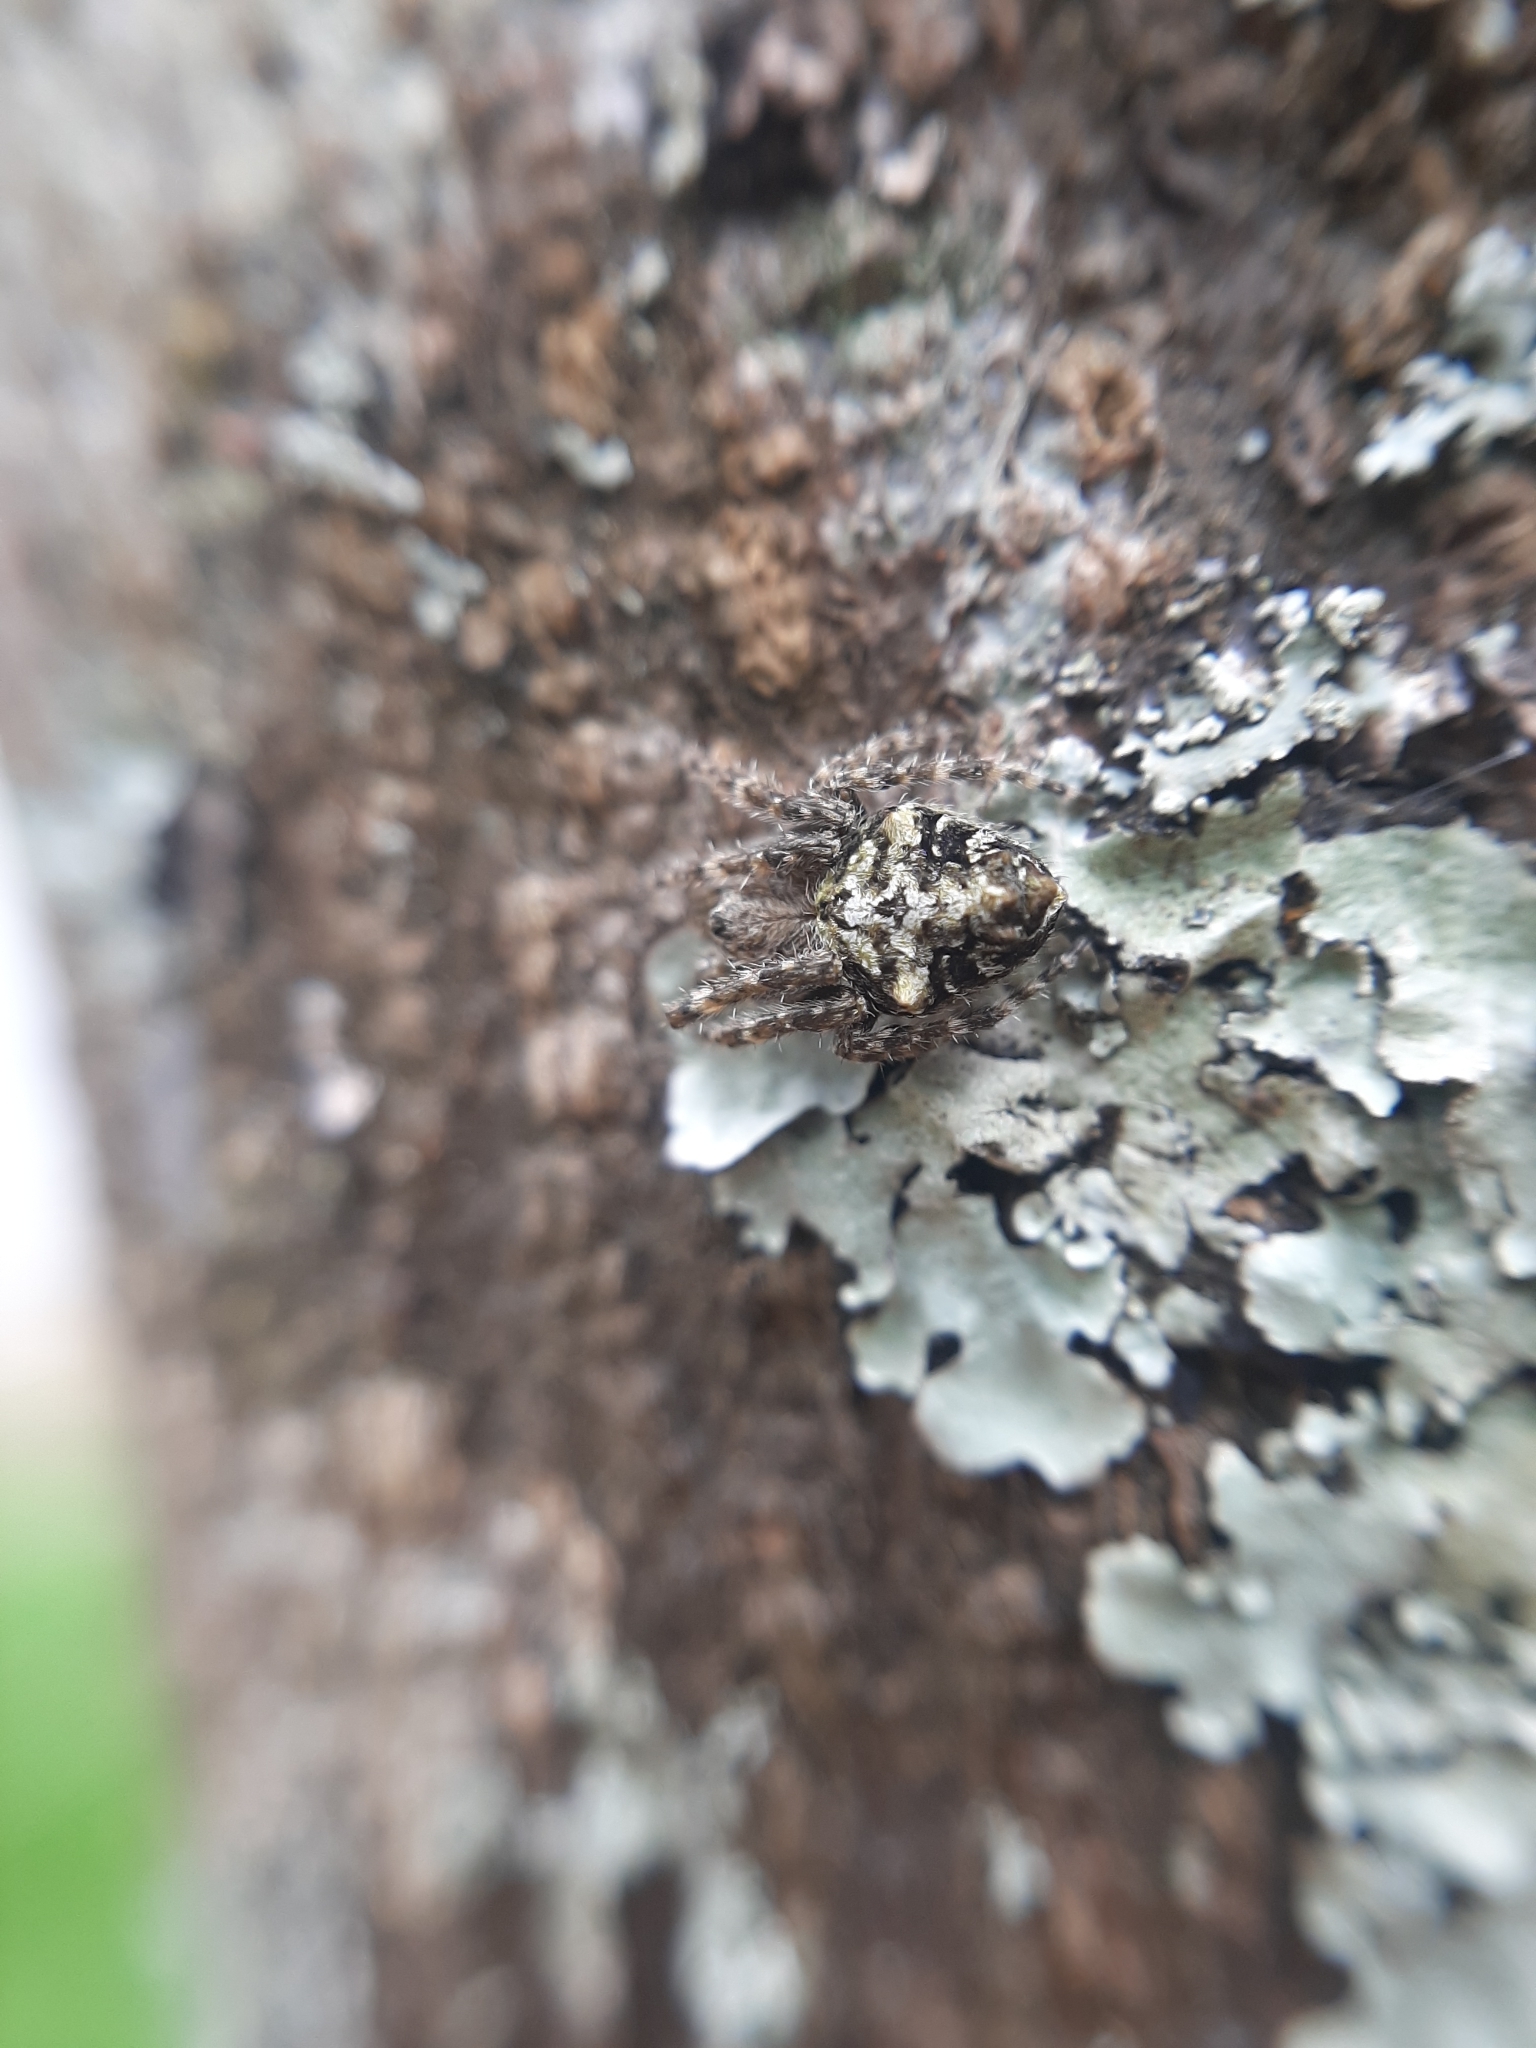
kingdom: Animalia
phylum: Arthropoda
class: Arachnida
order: Araneae
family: Araneidae
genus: Eriophora
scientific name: Eriophora pustulosa
